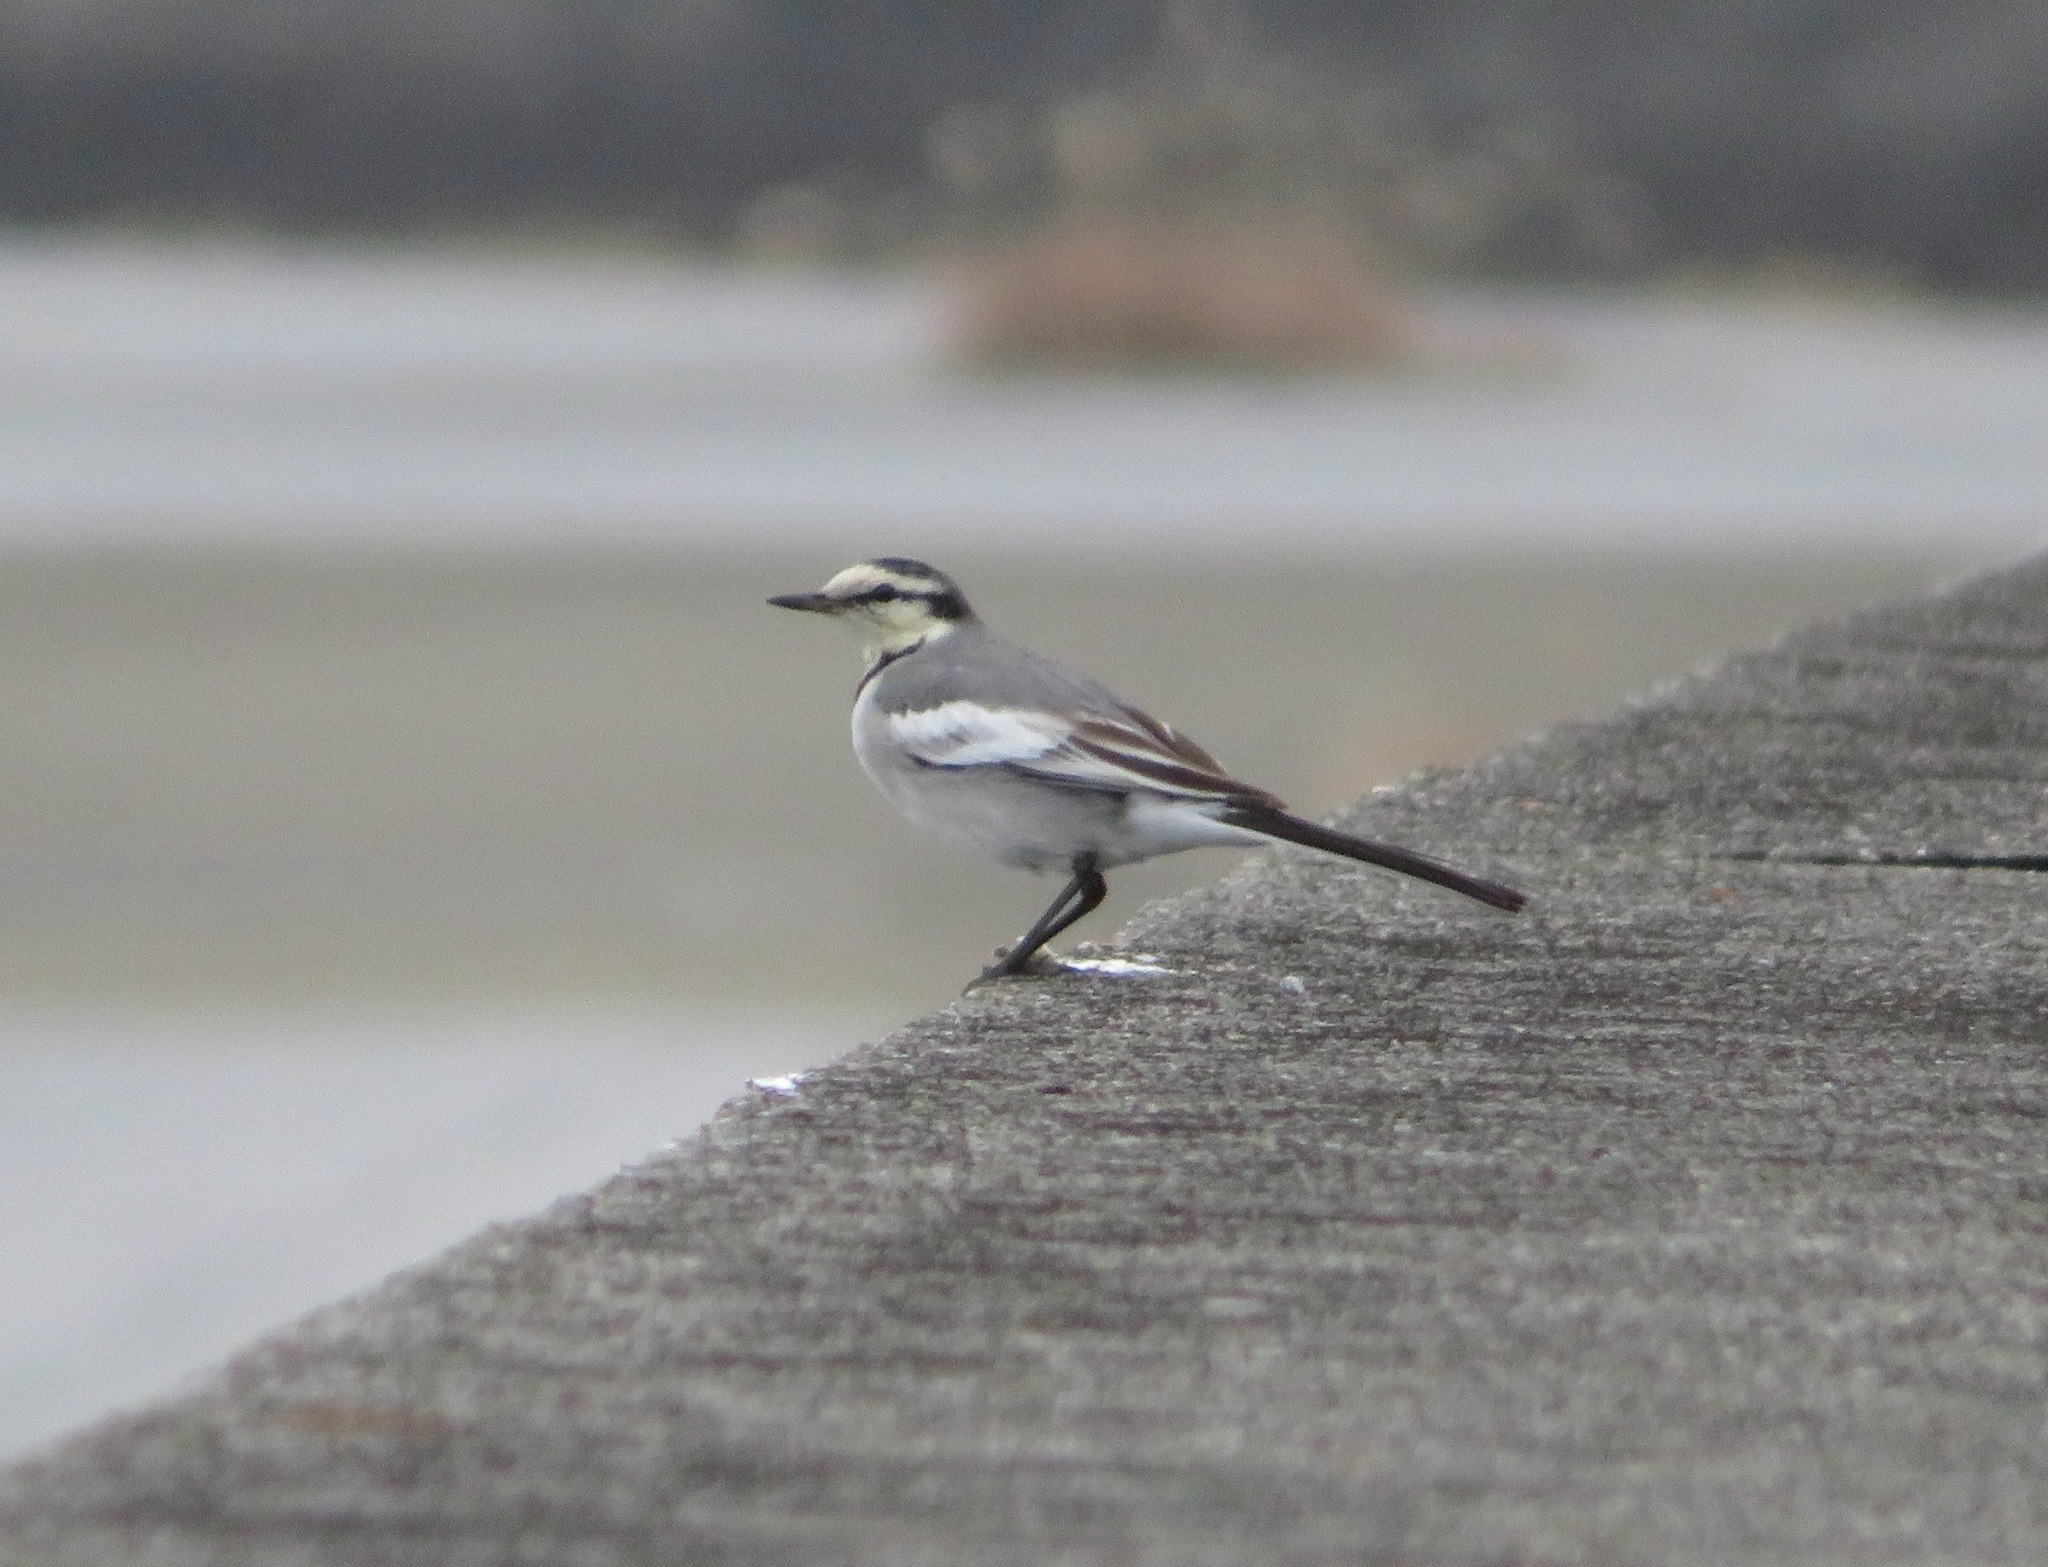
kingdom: Animalia
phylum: Chordata
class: Aves
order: Passeriformes
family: Motacillidae
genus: Motacilla
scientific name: Motacilla alba
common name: White wagtail
